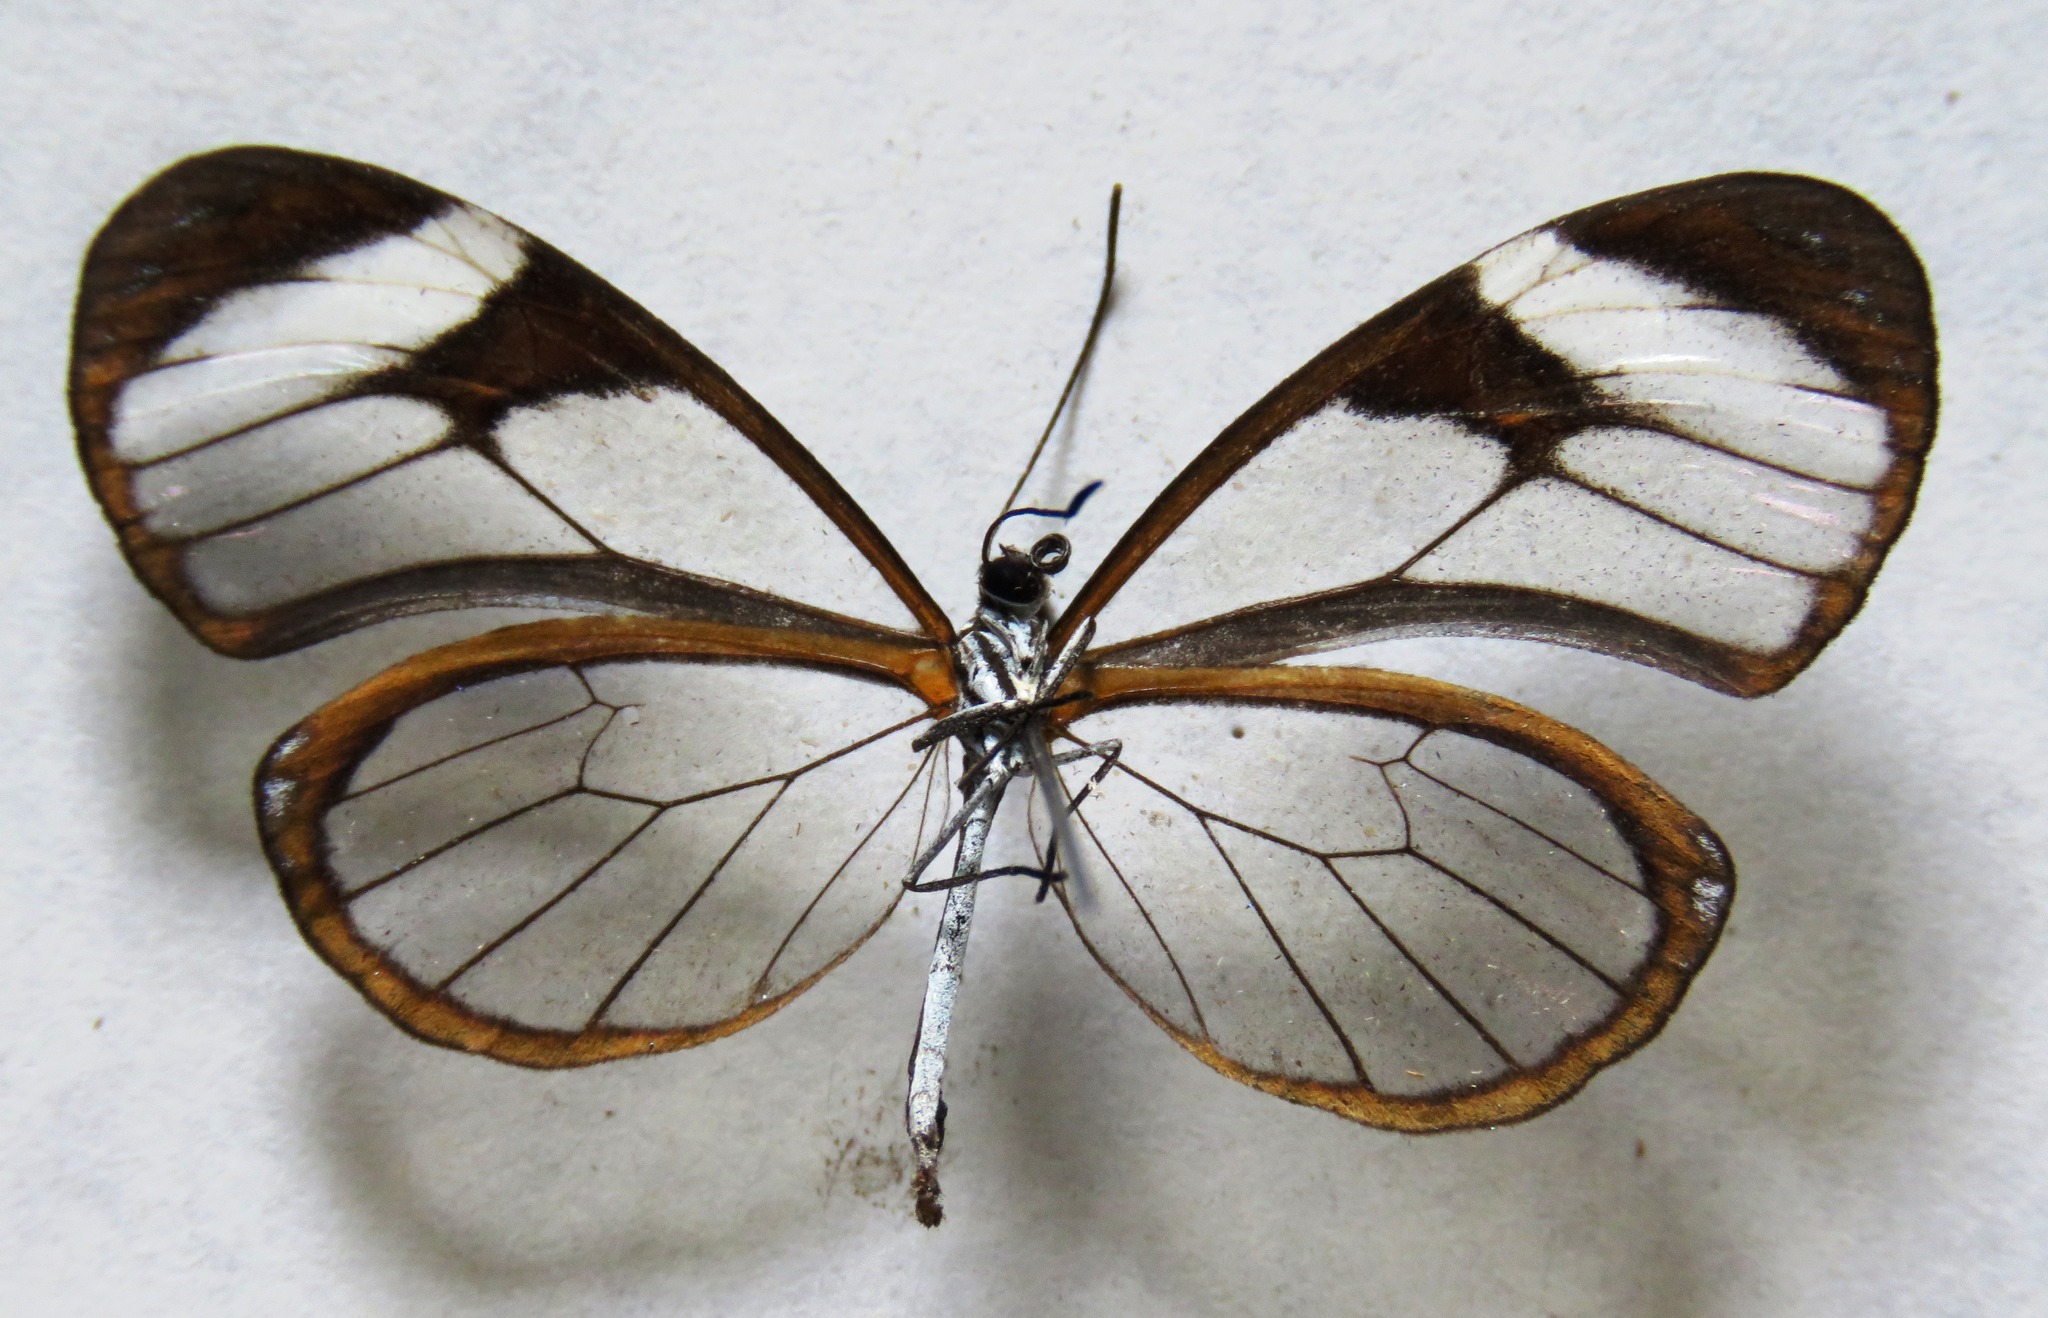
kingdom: Animalia
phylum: Arthropoda
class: Insecta
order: Lepidoptera
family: Nymphalidae
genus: Pteronymia
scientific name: Pteronymia cotytto
